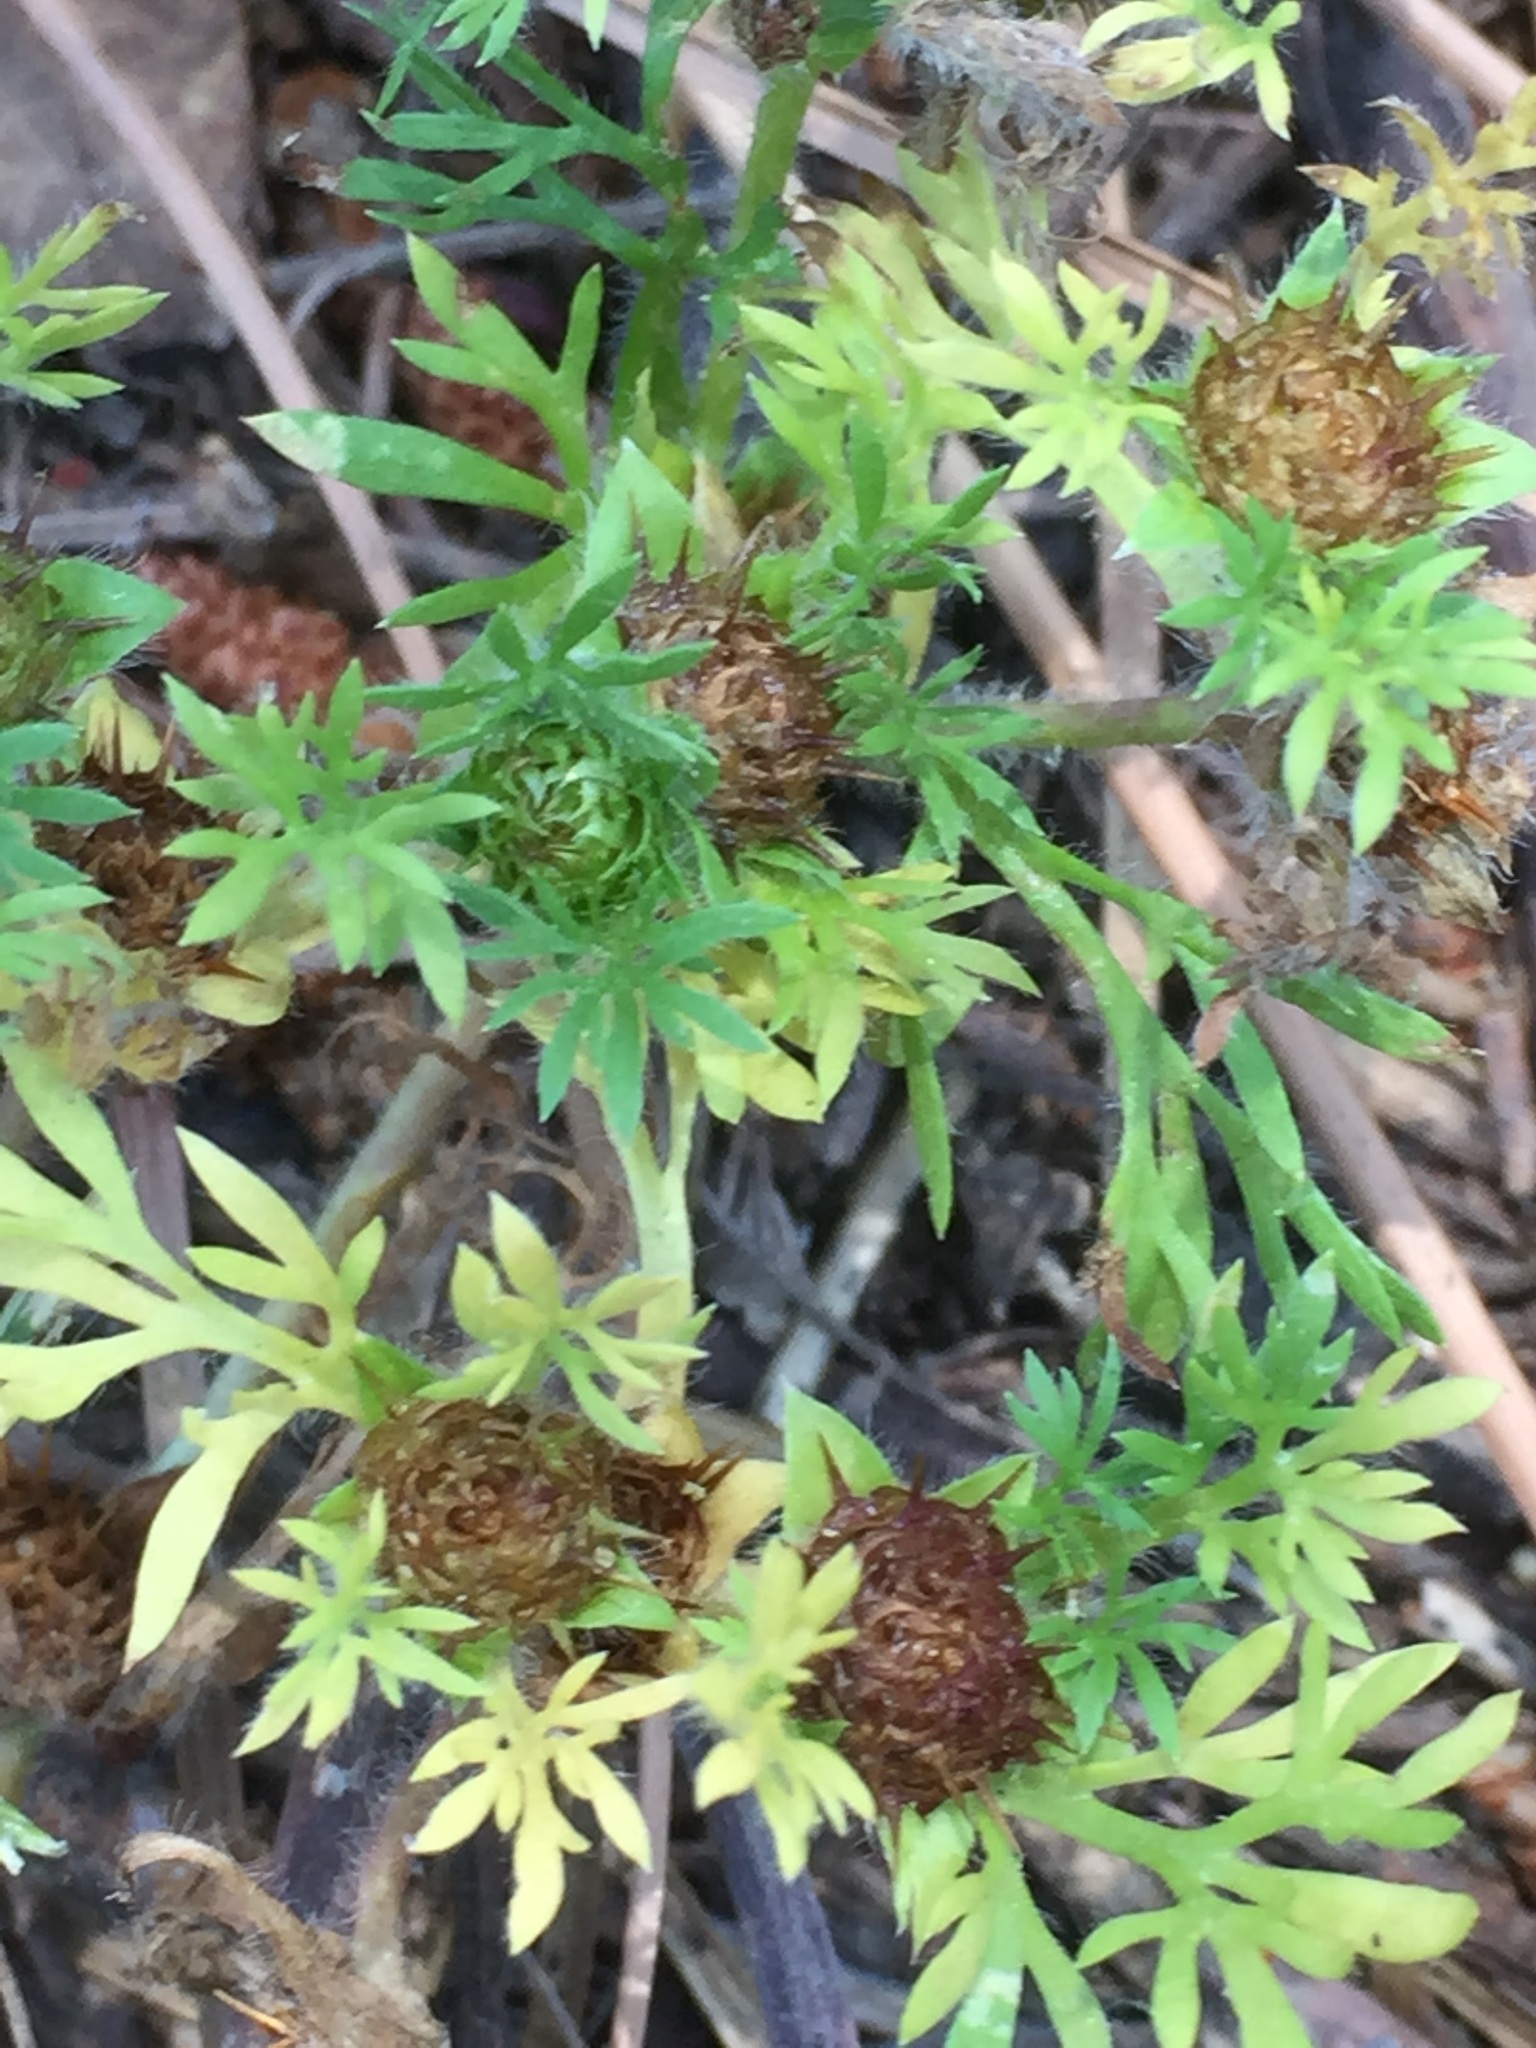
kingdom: Plantae
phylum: Tracheophyta
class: Magnoliopsida
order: Asterales
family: Asteraceae
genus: Soliva
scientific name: Soliva sessilis
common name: Field burrweed
